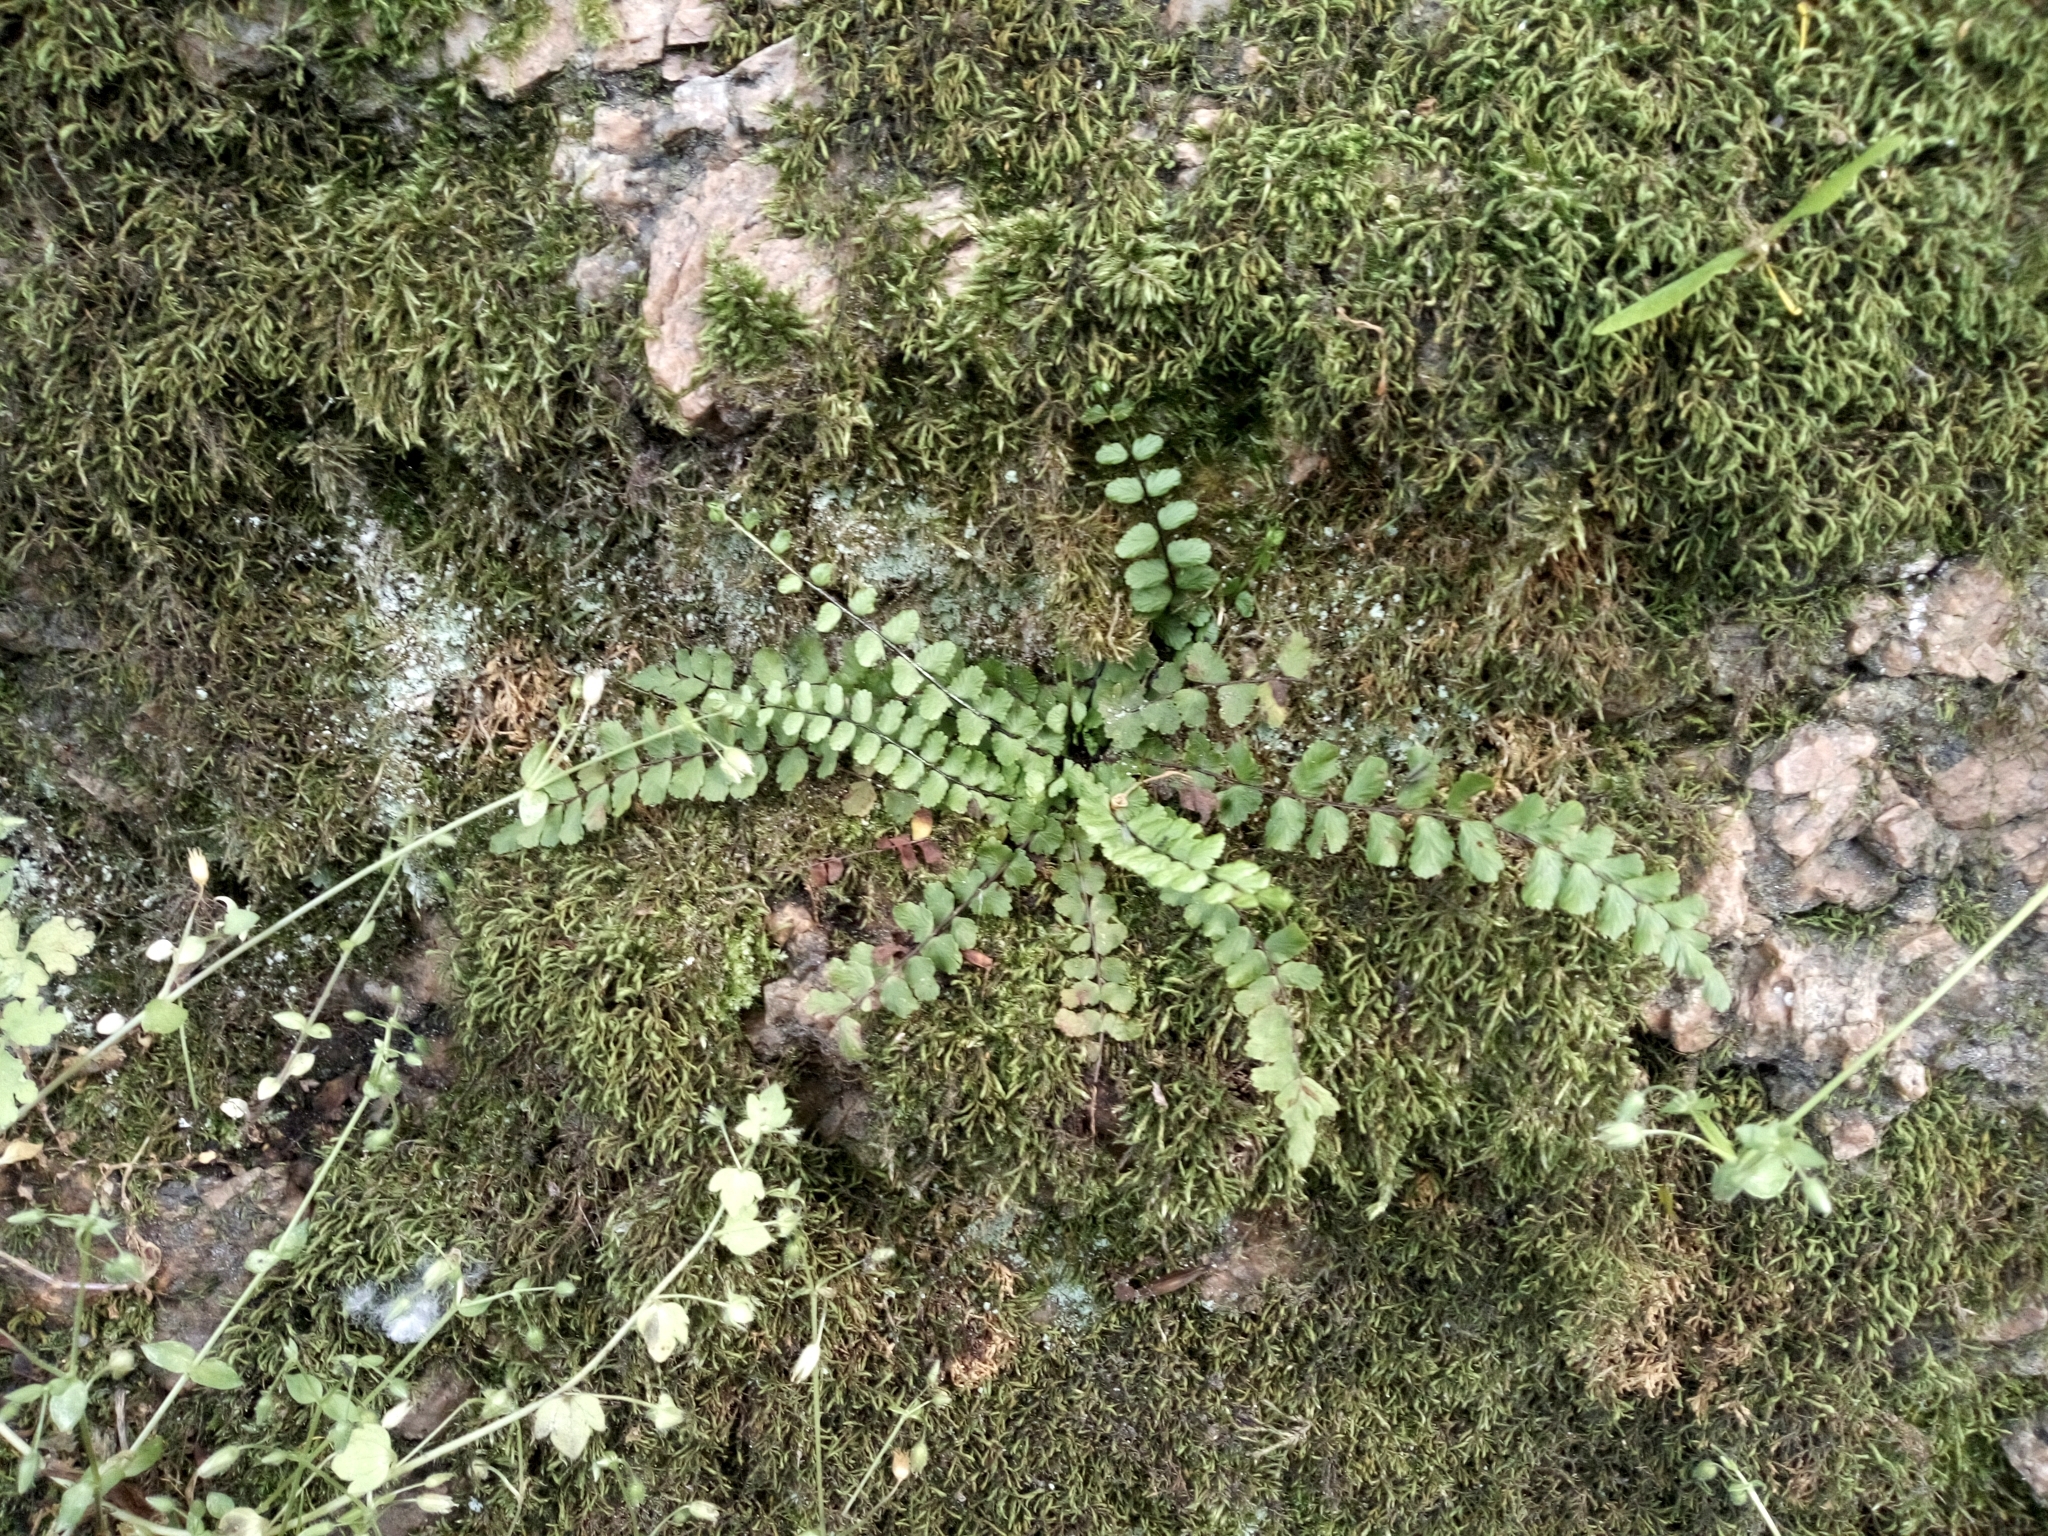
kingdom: Plantae
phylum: Tracheophyta
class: Polypodiopsida
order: Polypodiales
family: Aspleniaceae
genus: Asplenium
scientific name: Asplenium trichomanes
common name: Maidenhair spleenwort
